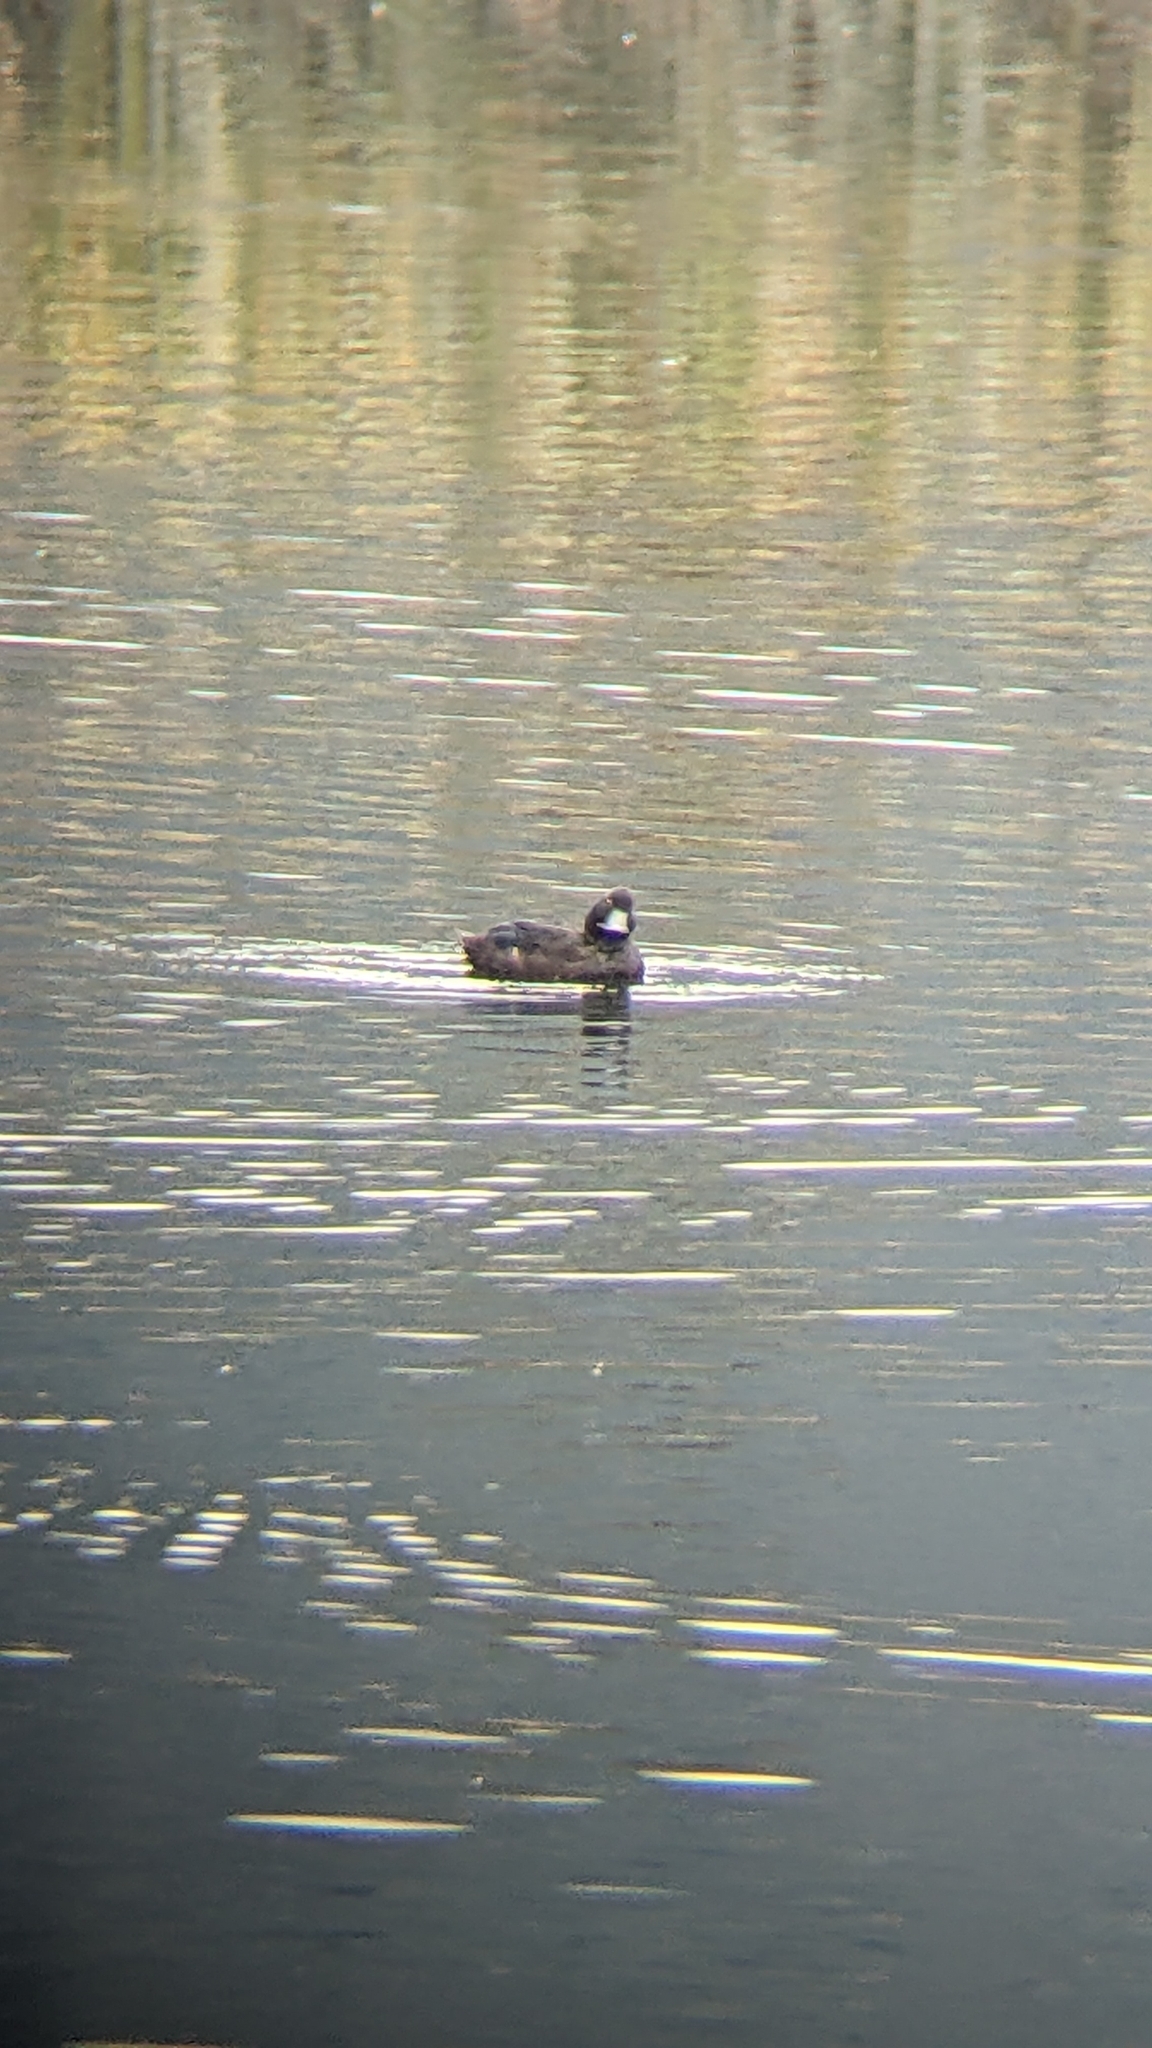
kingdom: Animalia
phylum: Chordata
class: Aves
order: Anseriformes
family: Anatidae
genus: Aythya
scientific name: Aythya novaeseelandiae
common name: New zealand scaup
